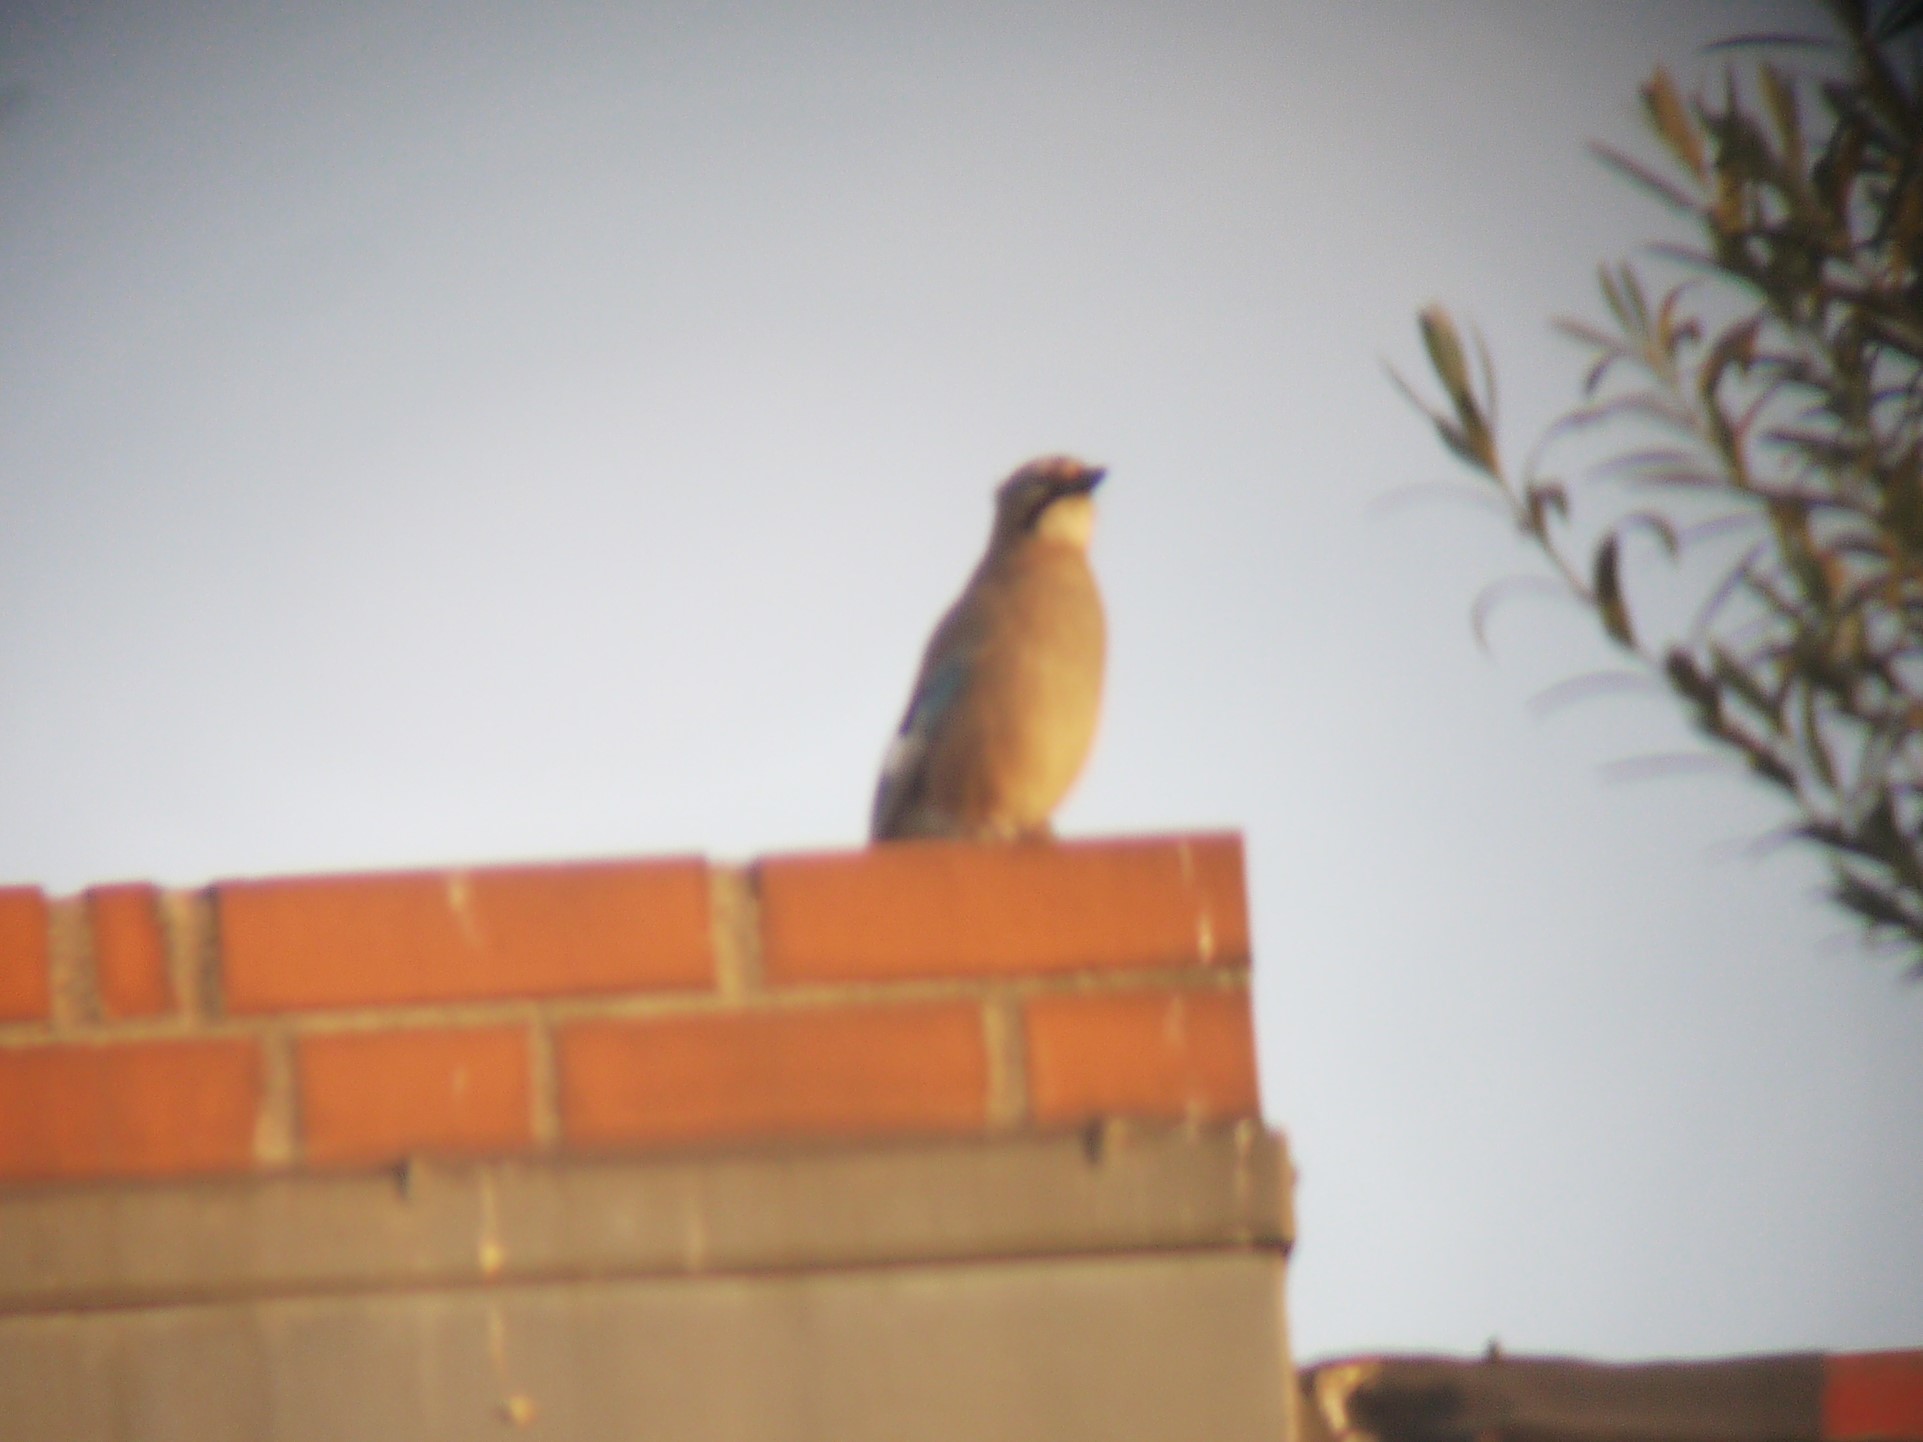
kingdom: Animalia
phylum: Chordata
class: Aves
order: Passeriformes
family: Corvidae
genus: Garrulus
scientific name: Garrulus glandarius
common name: Eurasian jay
